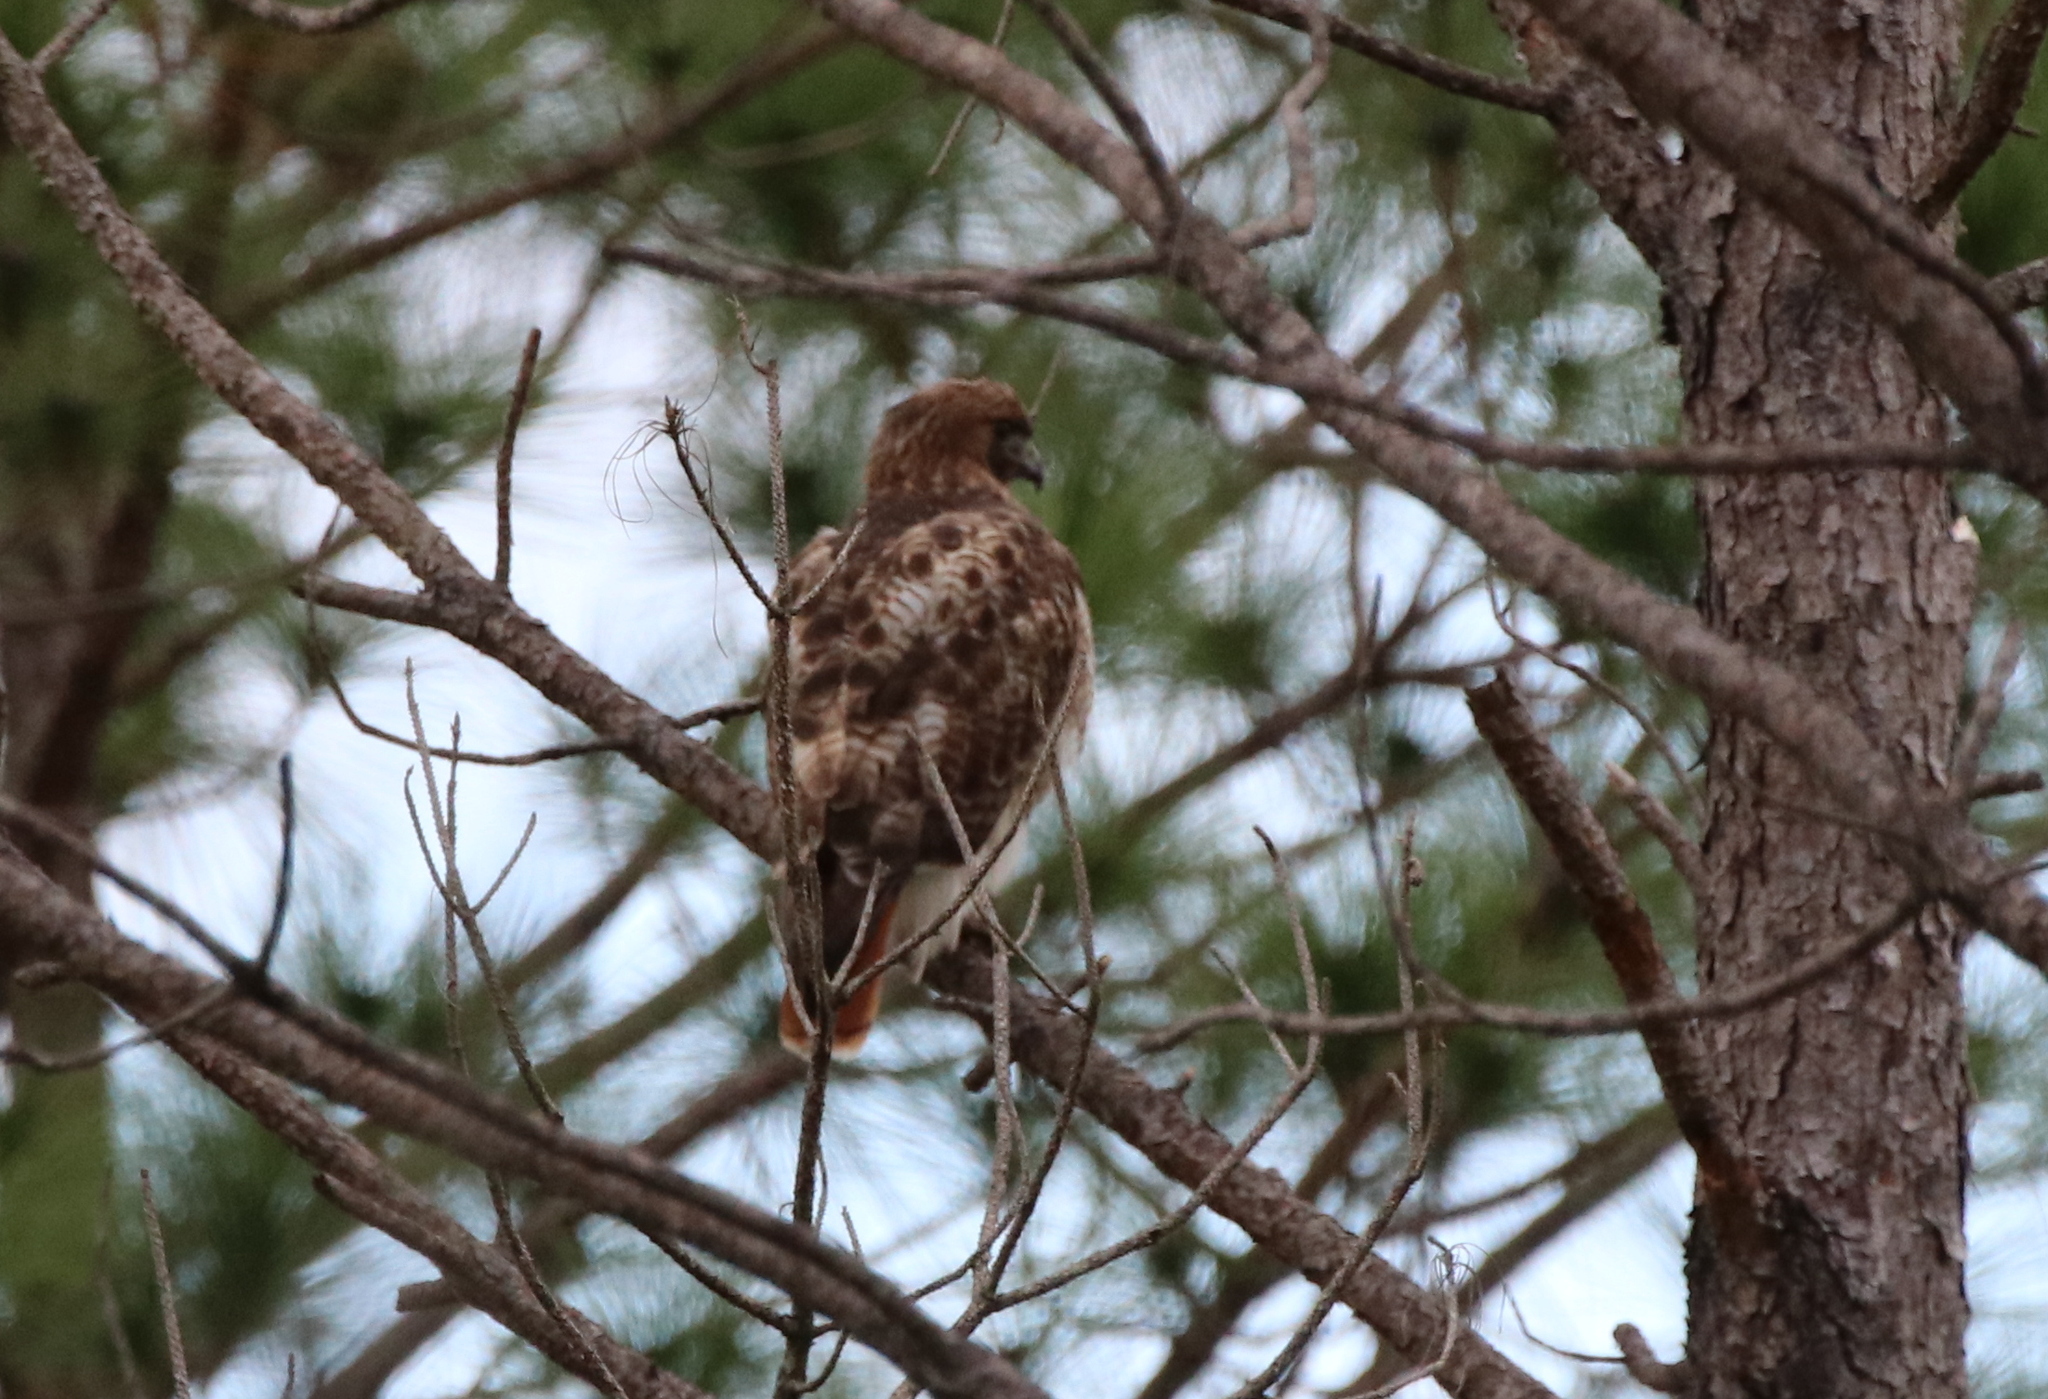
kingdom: Animalia
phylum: Chordata
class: Aves
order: Accipitriformes
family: Accipitridae
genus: Buteo
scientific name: Buteo jamaicensis
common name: Red-tailed hawk
